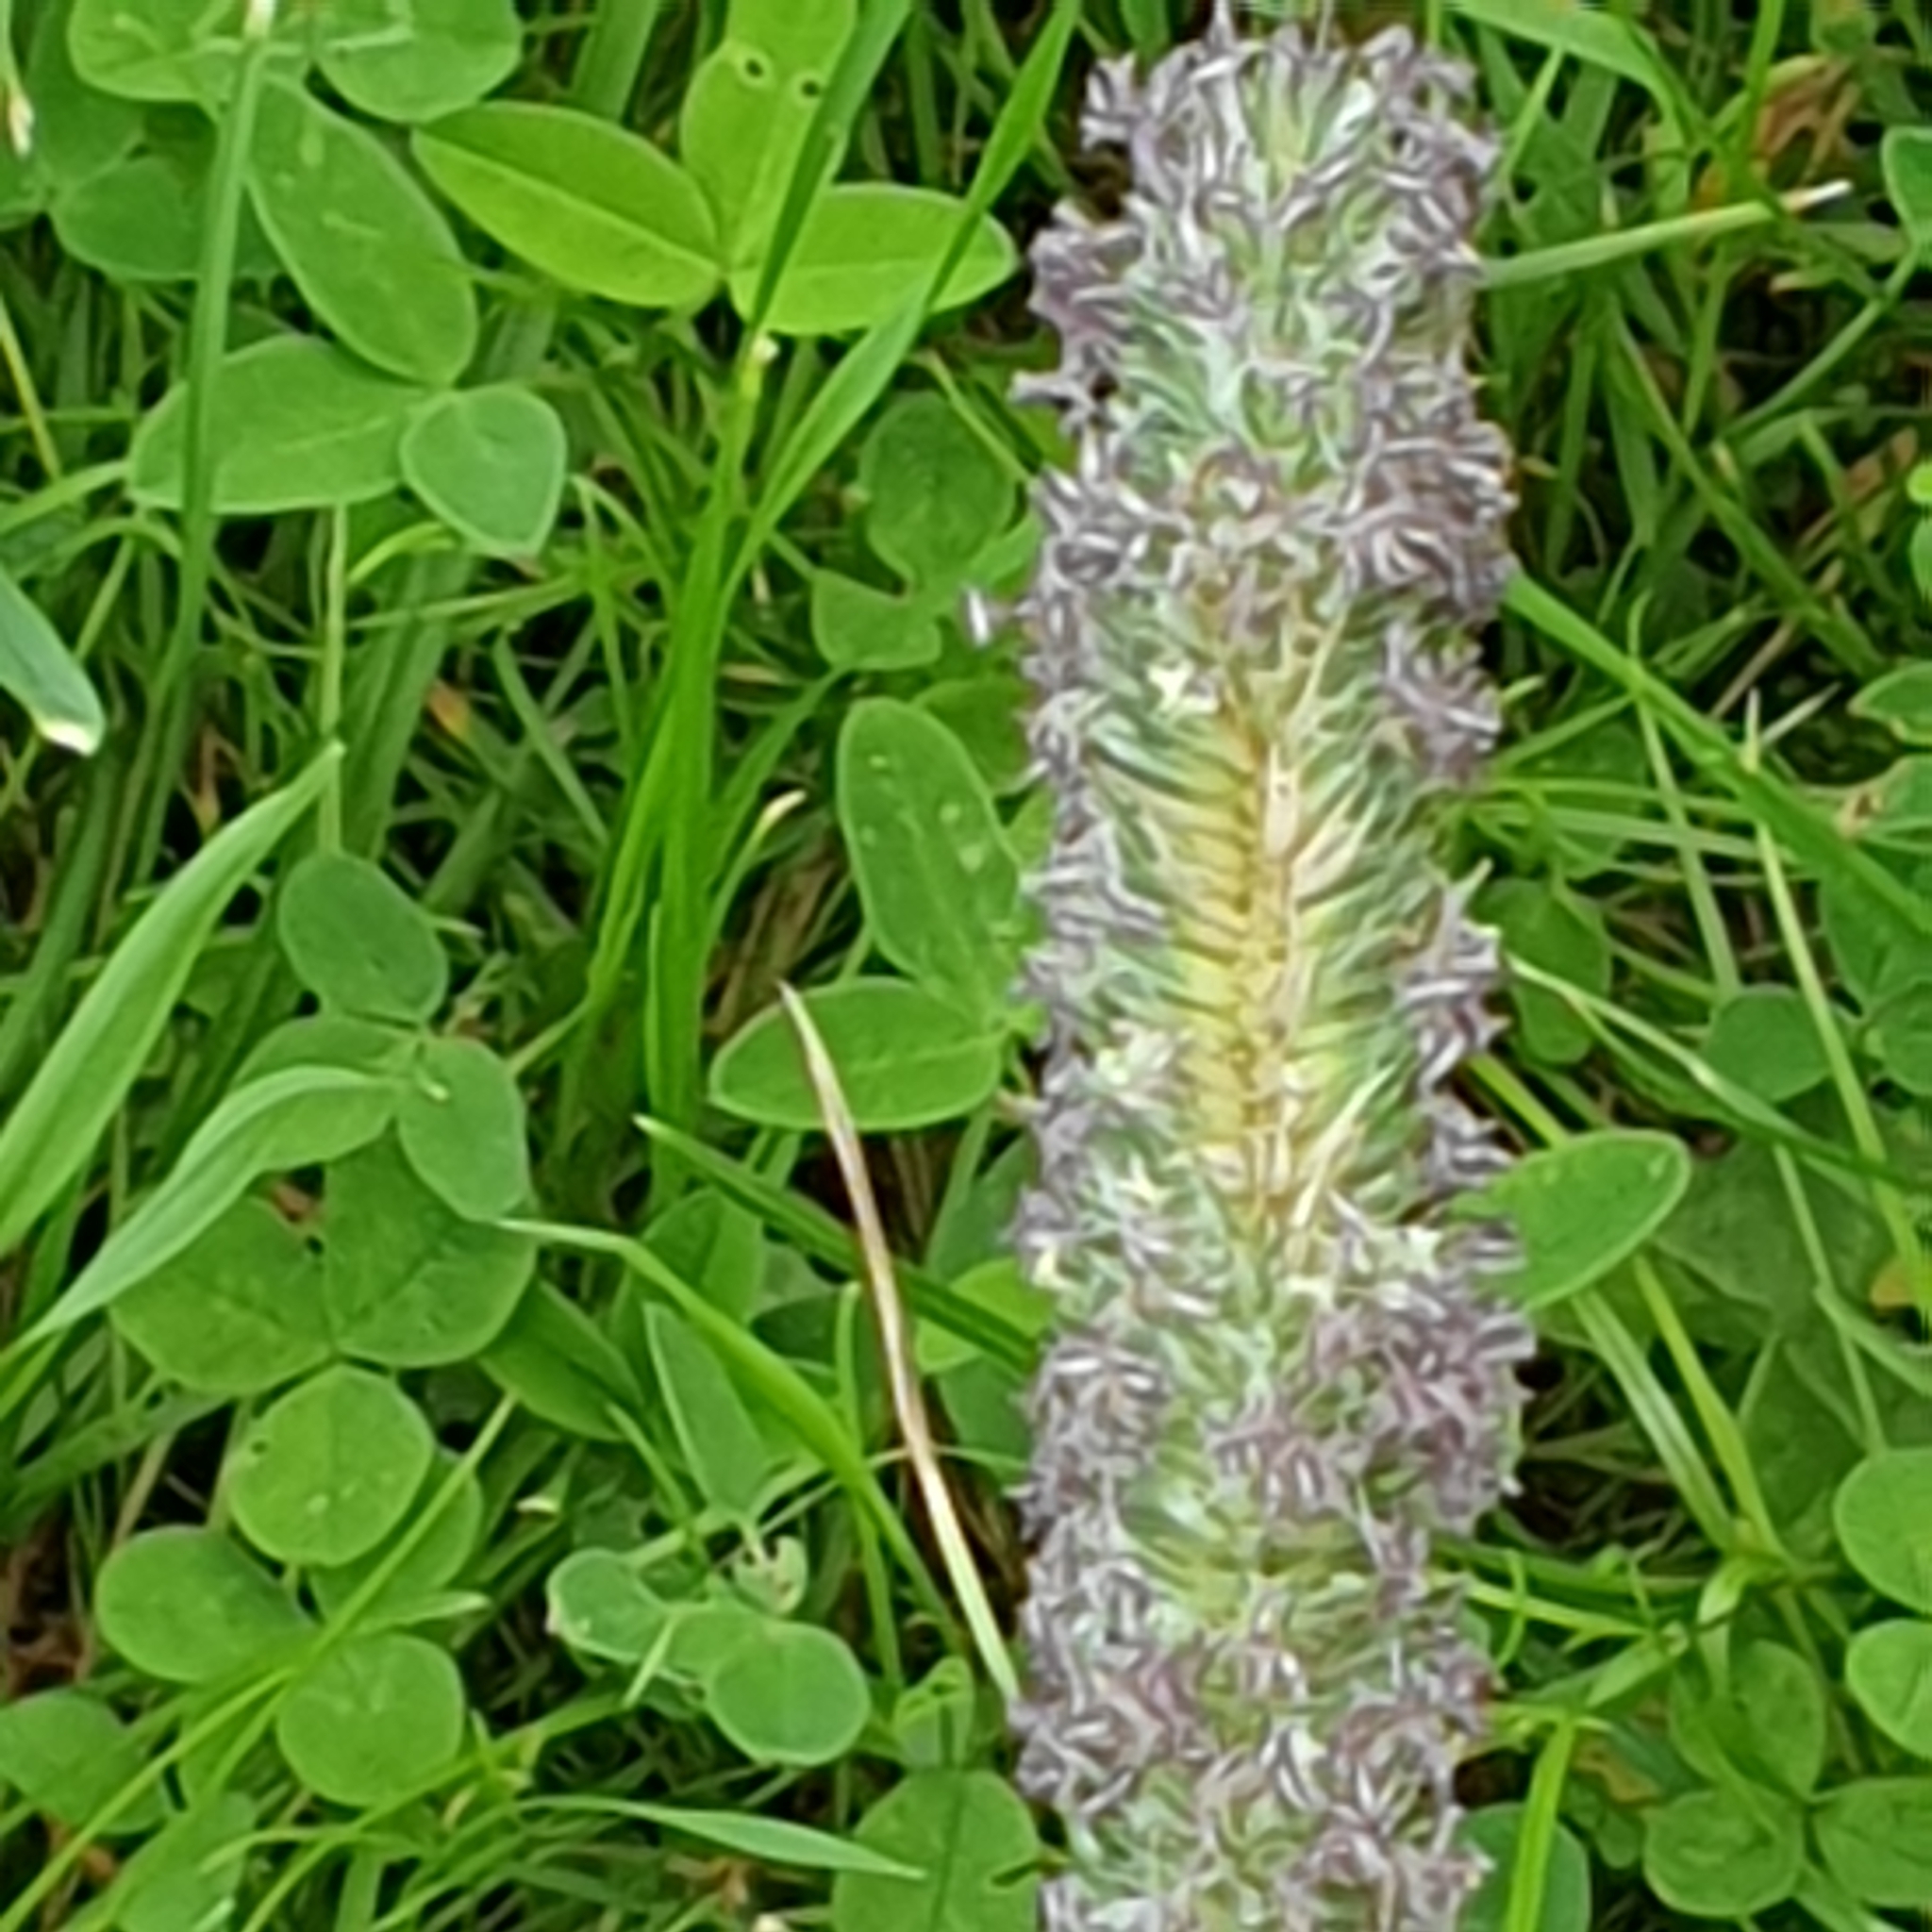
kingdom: Plantae
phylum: Tracheophyta
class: Liliopsida
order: Poales
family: Poaceae
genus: Phleum
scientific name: Phleum pratense
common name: Timothy grass
